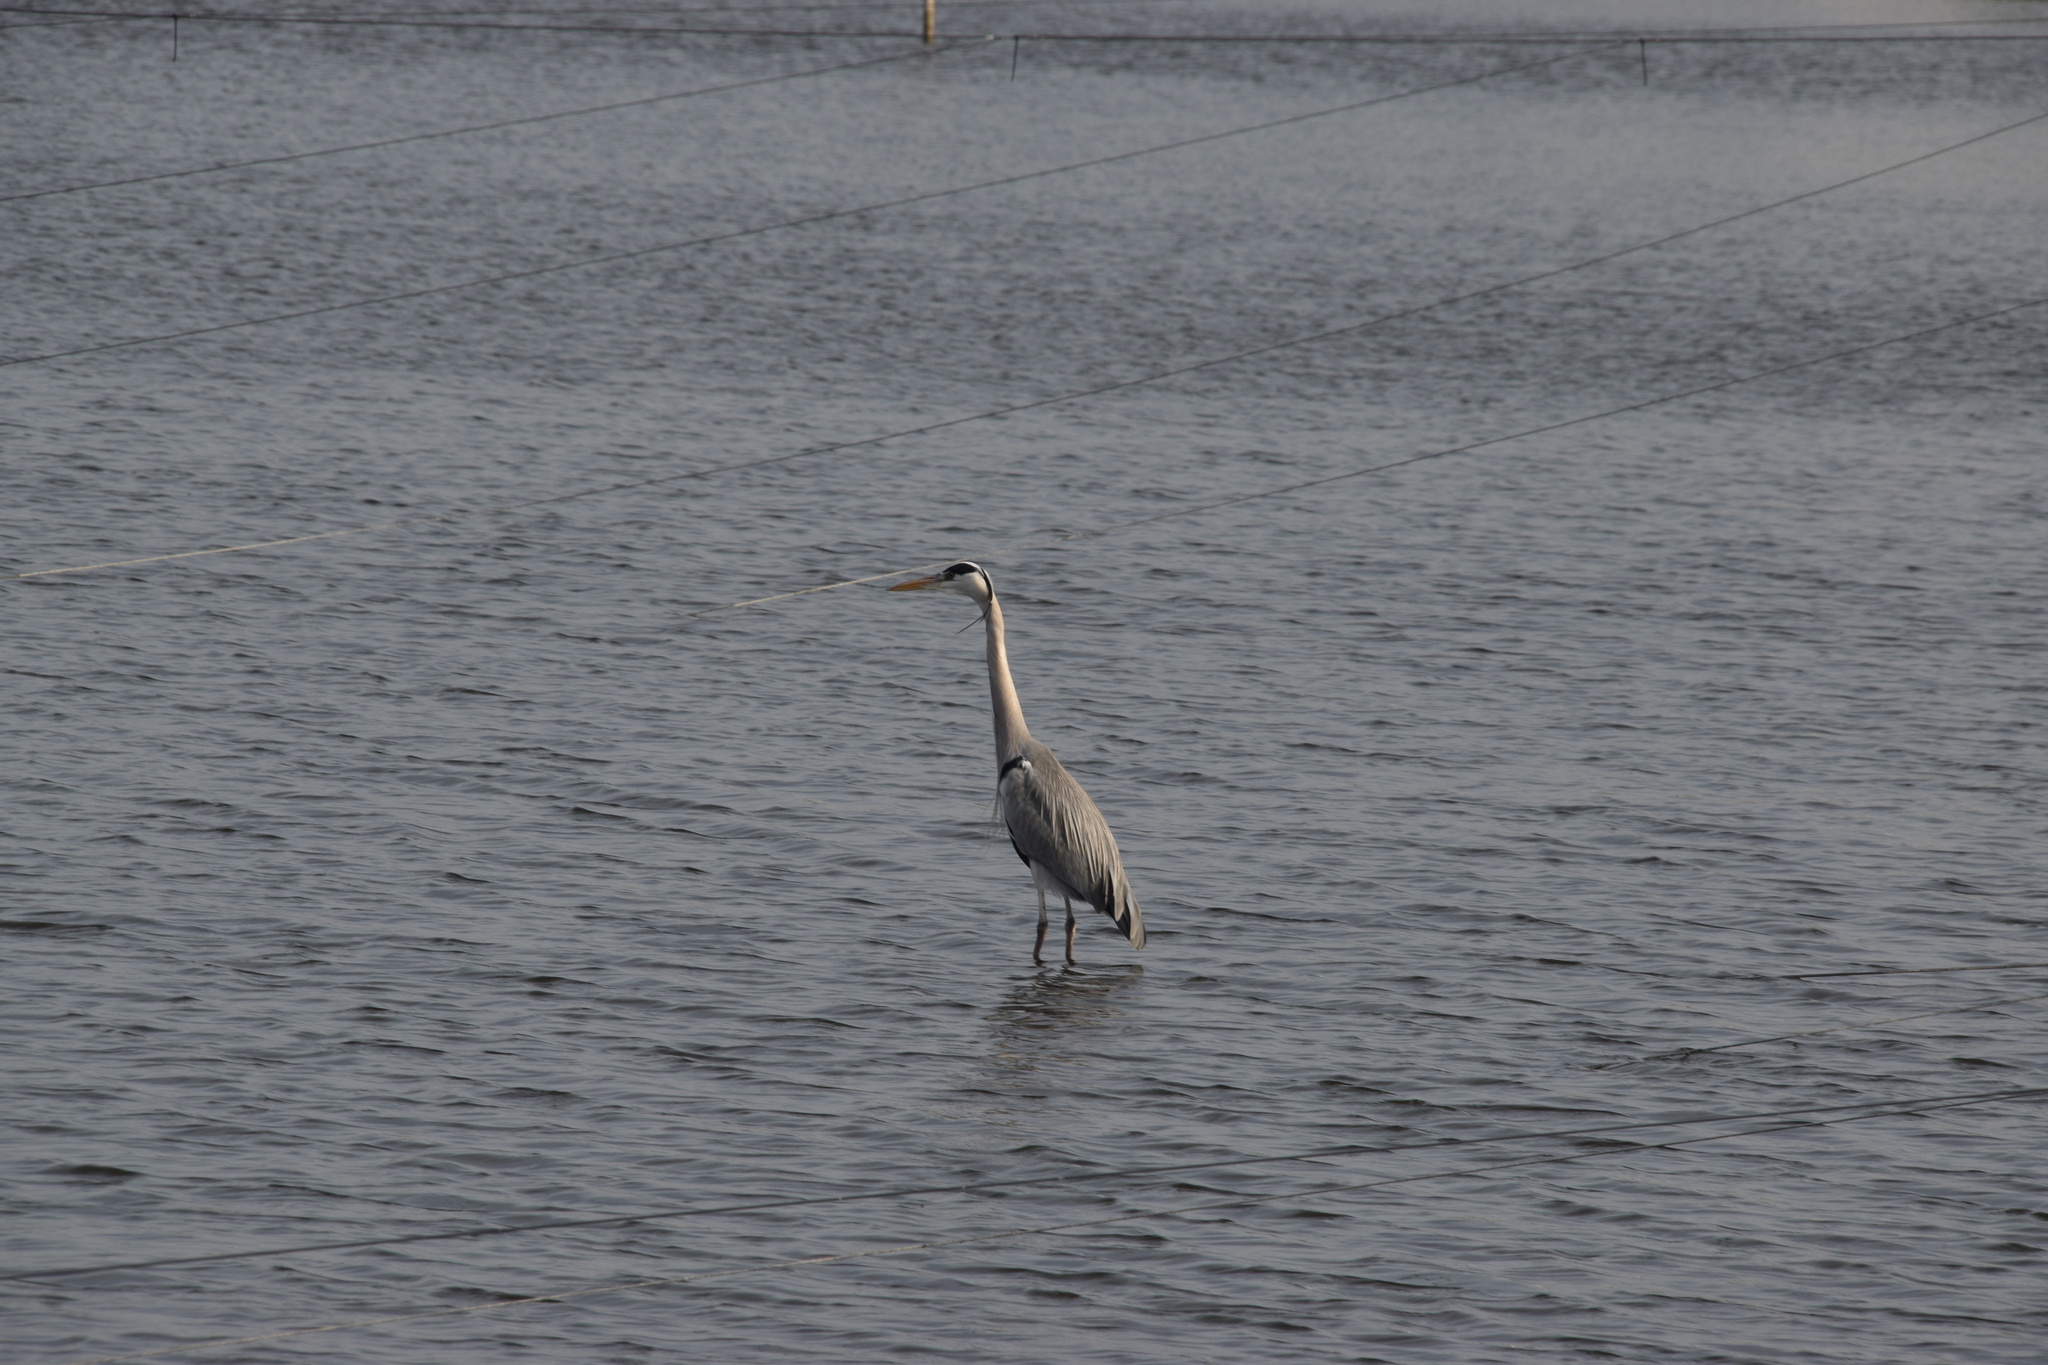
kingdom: Animalia
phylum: Chordata
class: Aves
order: Pelecaniformes
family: Ardeidae
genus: Ardea
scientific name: Ardea cinerea
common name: Grey heron
